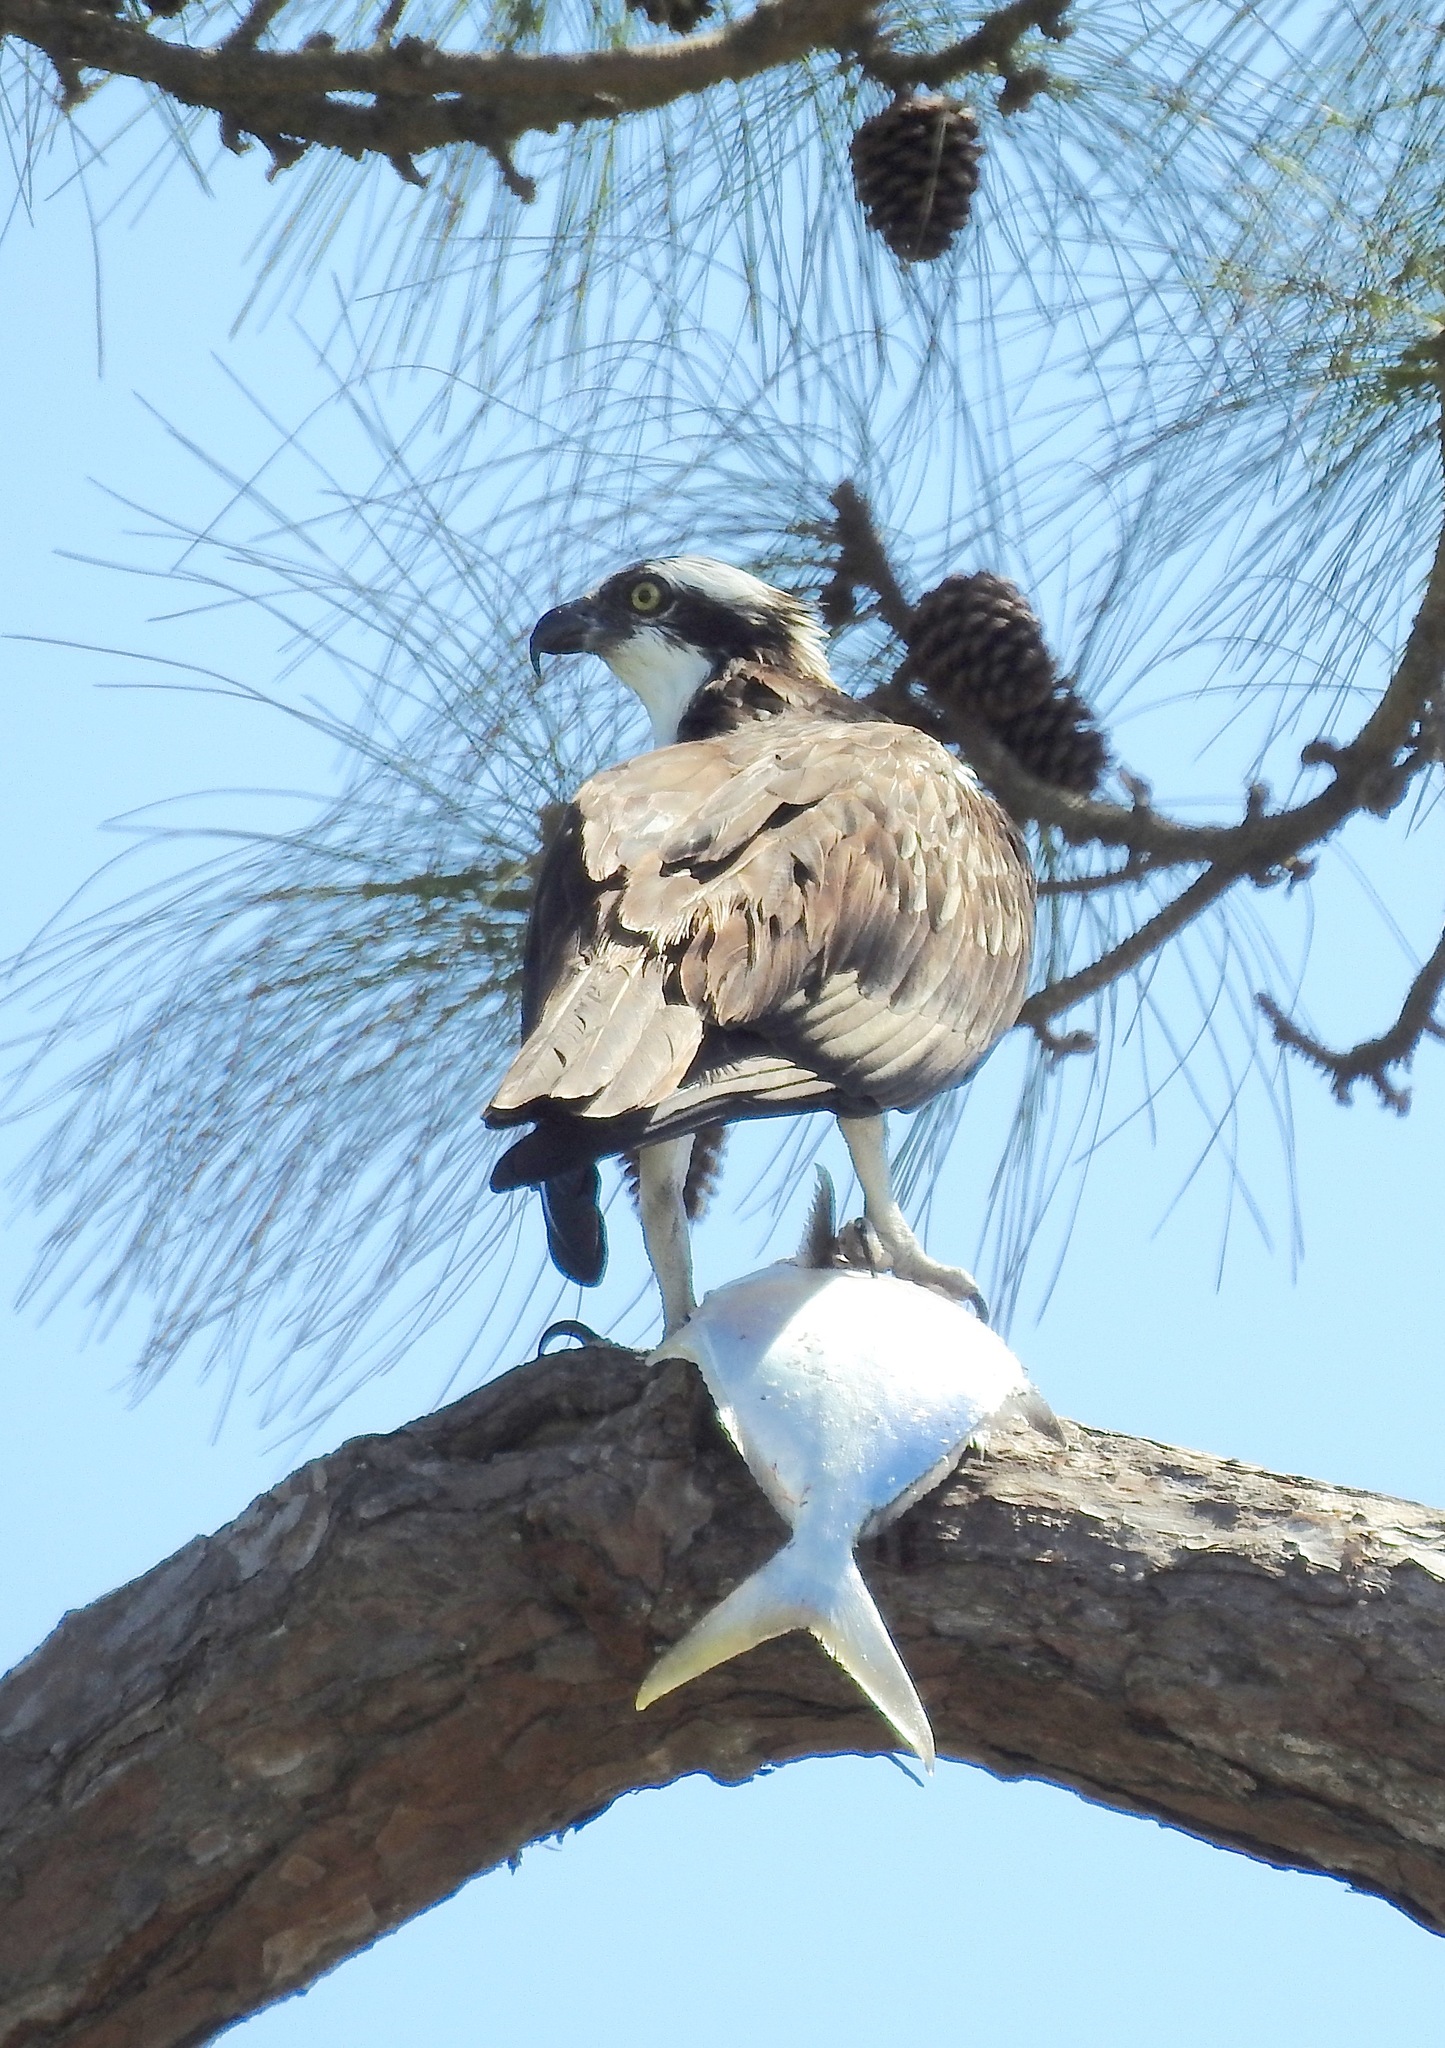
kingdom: Animalia
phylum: Chordata
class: Aves
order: Accipitriformes
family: Pandionidae
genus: Pandion
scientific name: Pandion haliaetus
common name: Osprey
